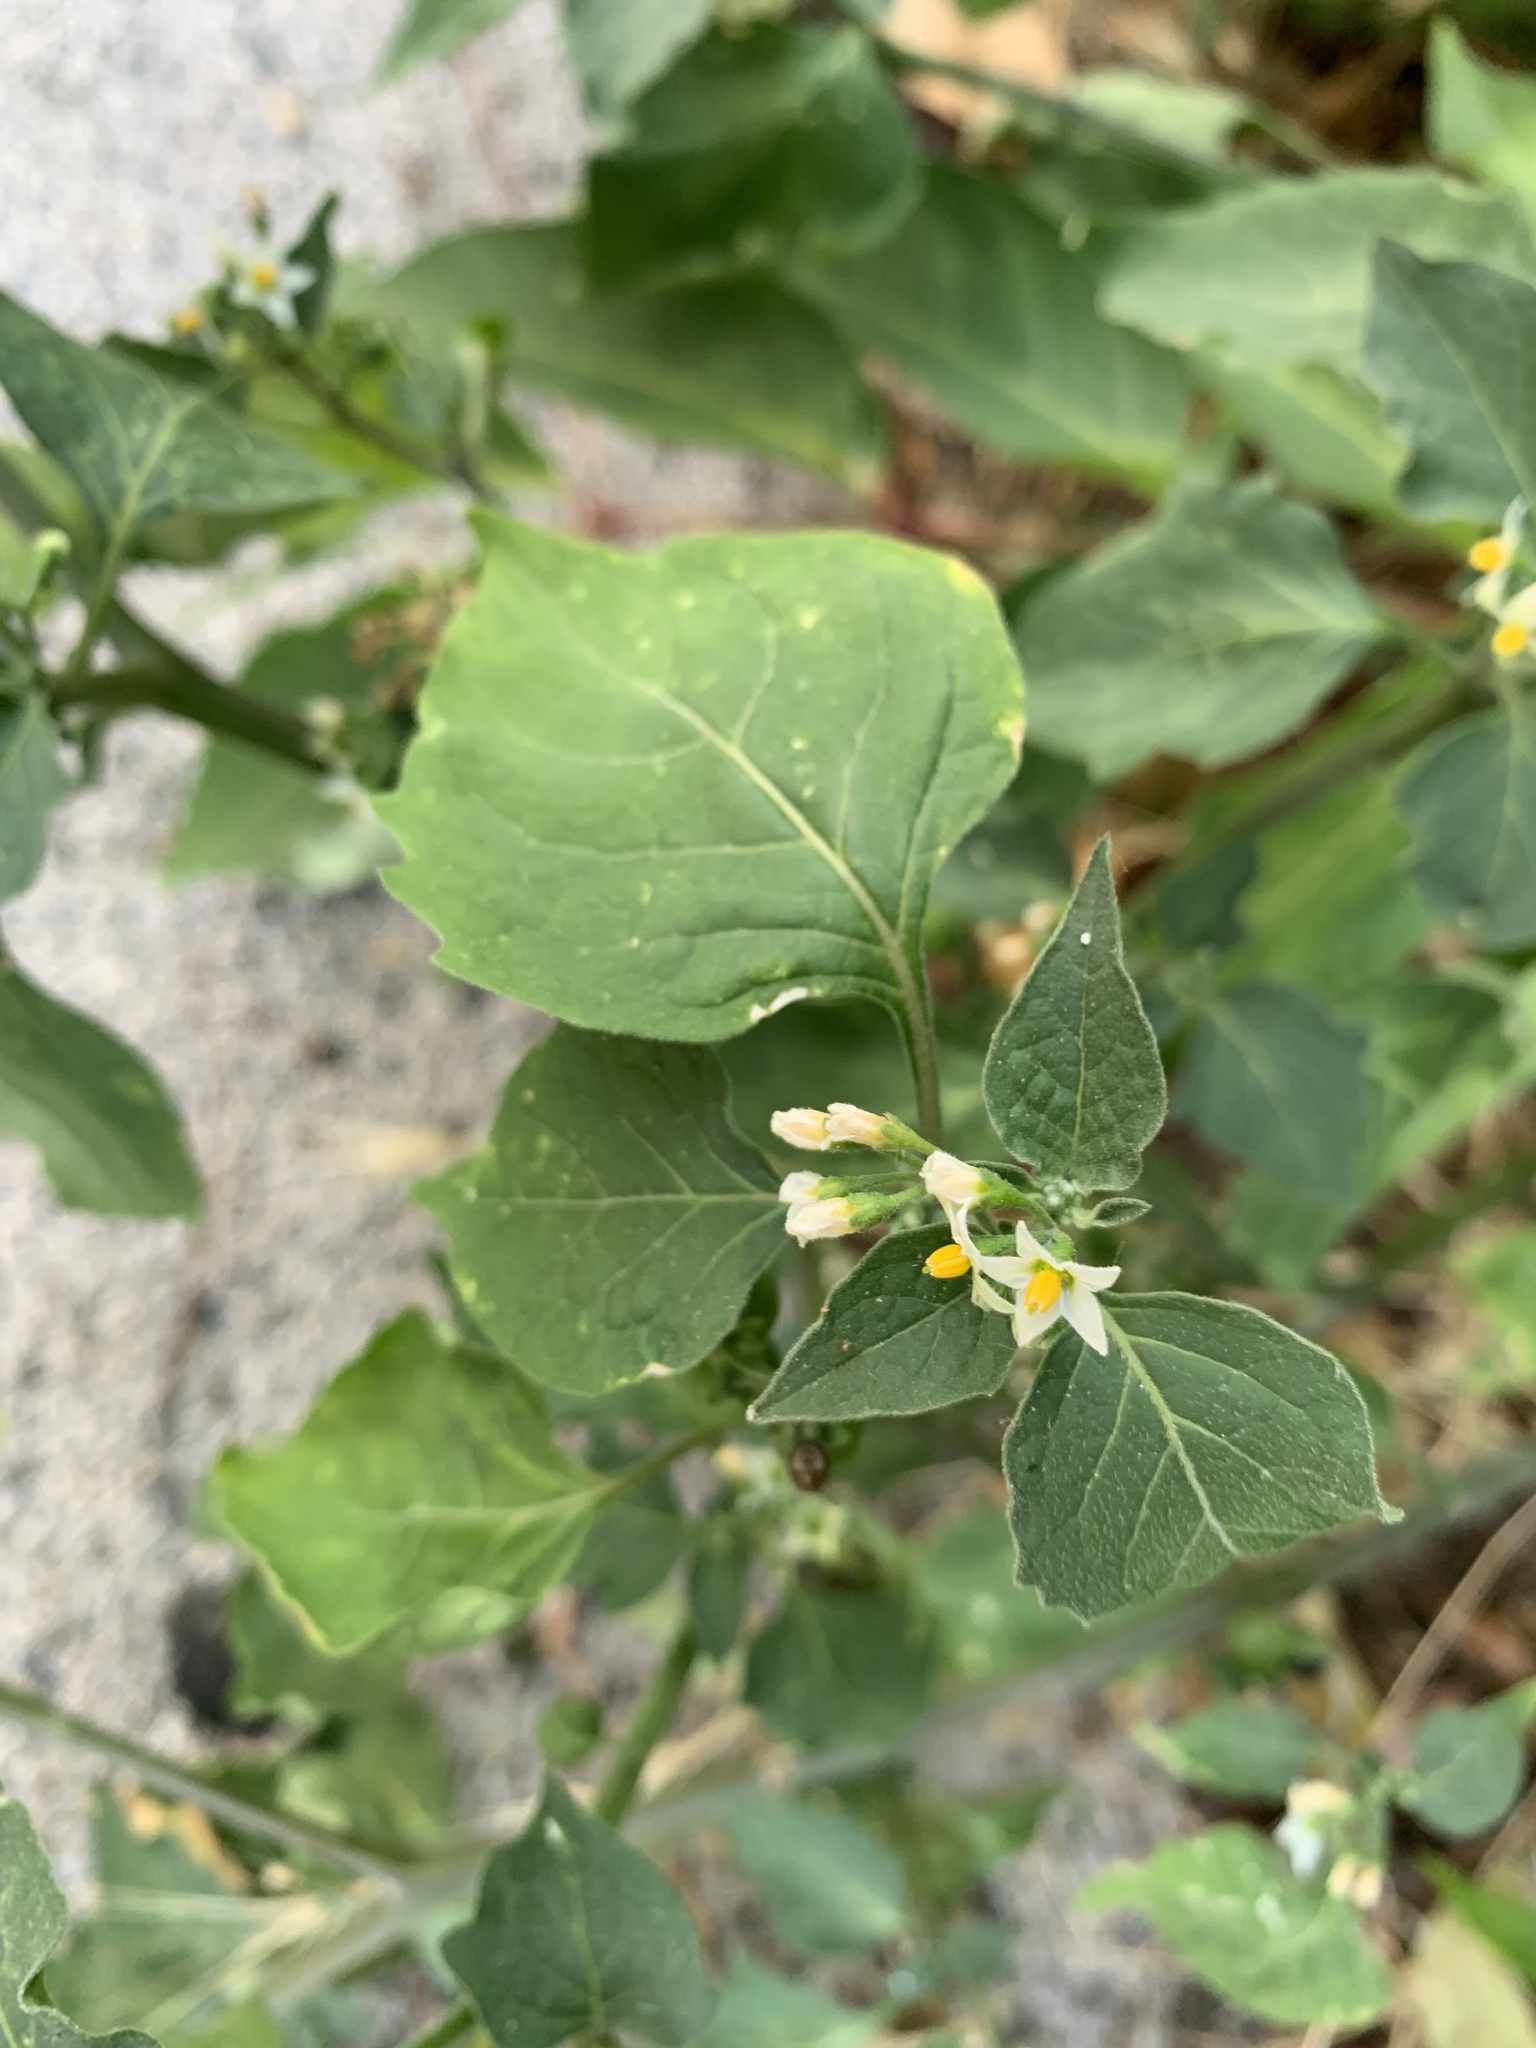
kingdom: Plantae
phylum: Tracheophyta
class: Magnoliopsida
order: Solanales
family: Solanaceae
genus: Solanum
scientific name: Solanum nigrum
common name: Black nightshade
